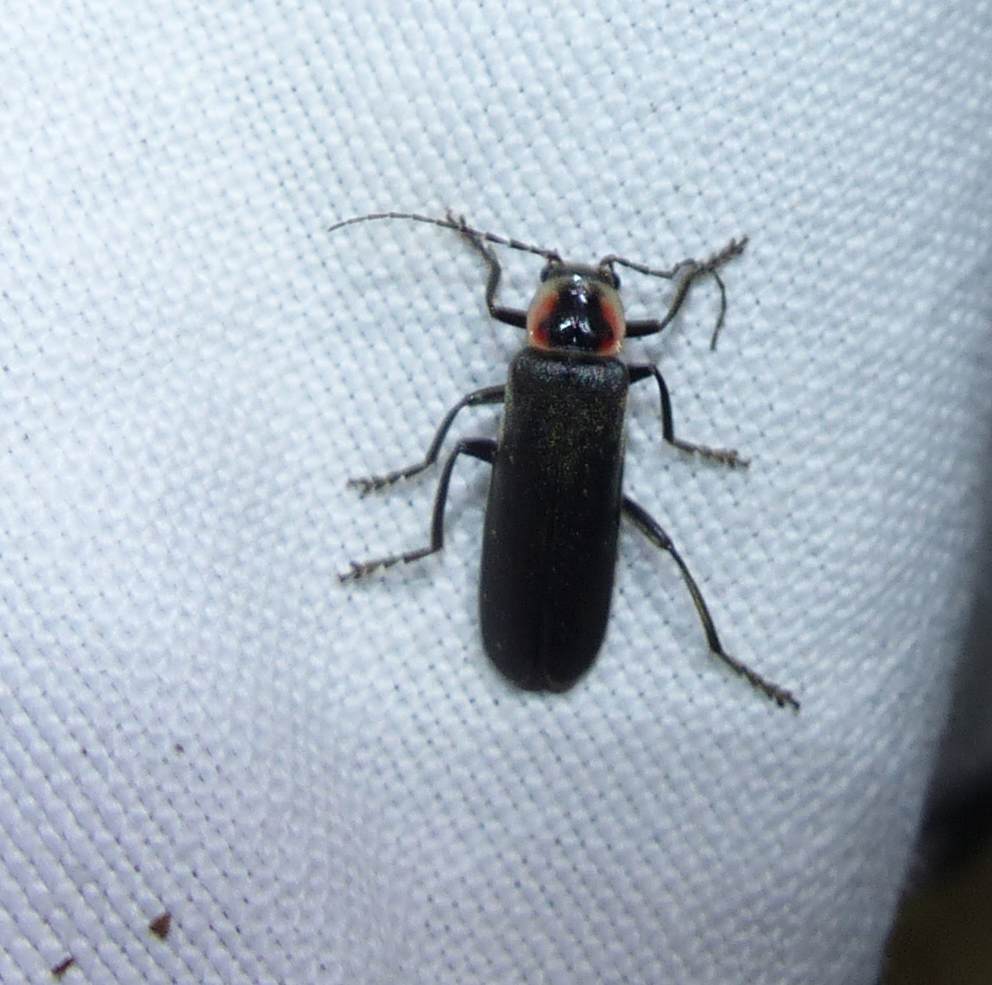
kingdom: Animalia
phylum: Arthropoda
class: Insecta
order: Coleoptera
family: Cantharidae
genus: Rhaxonycha
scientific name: Rhaxonycha bilobata
